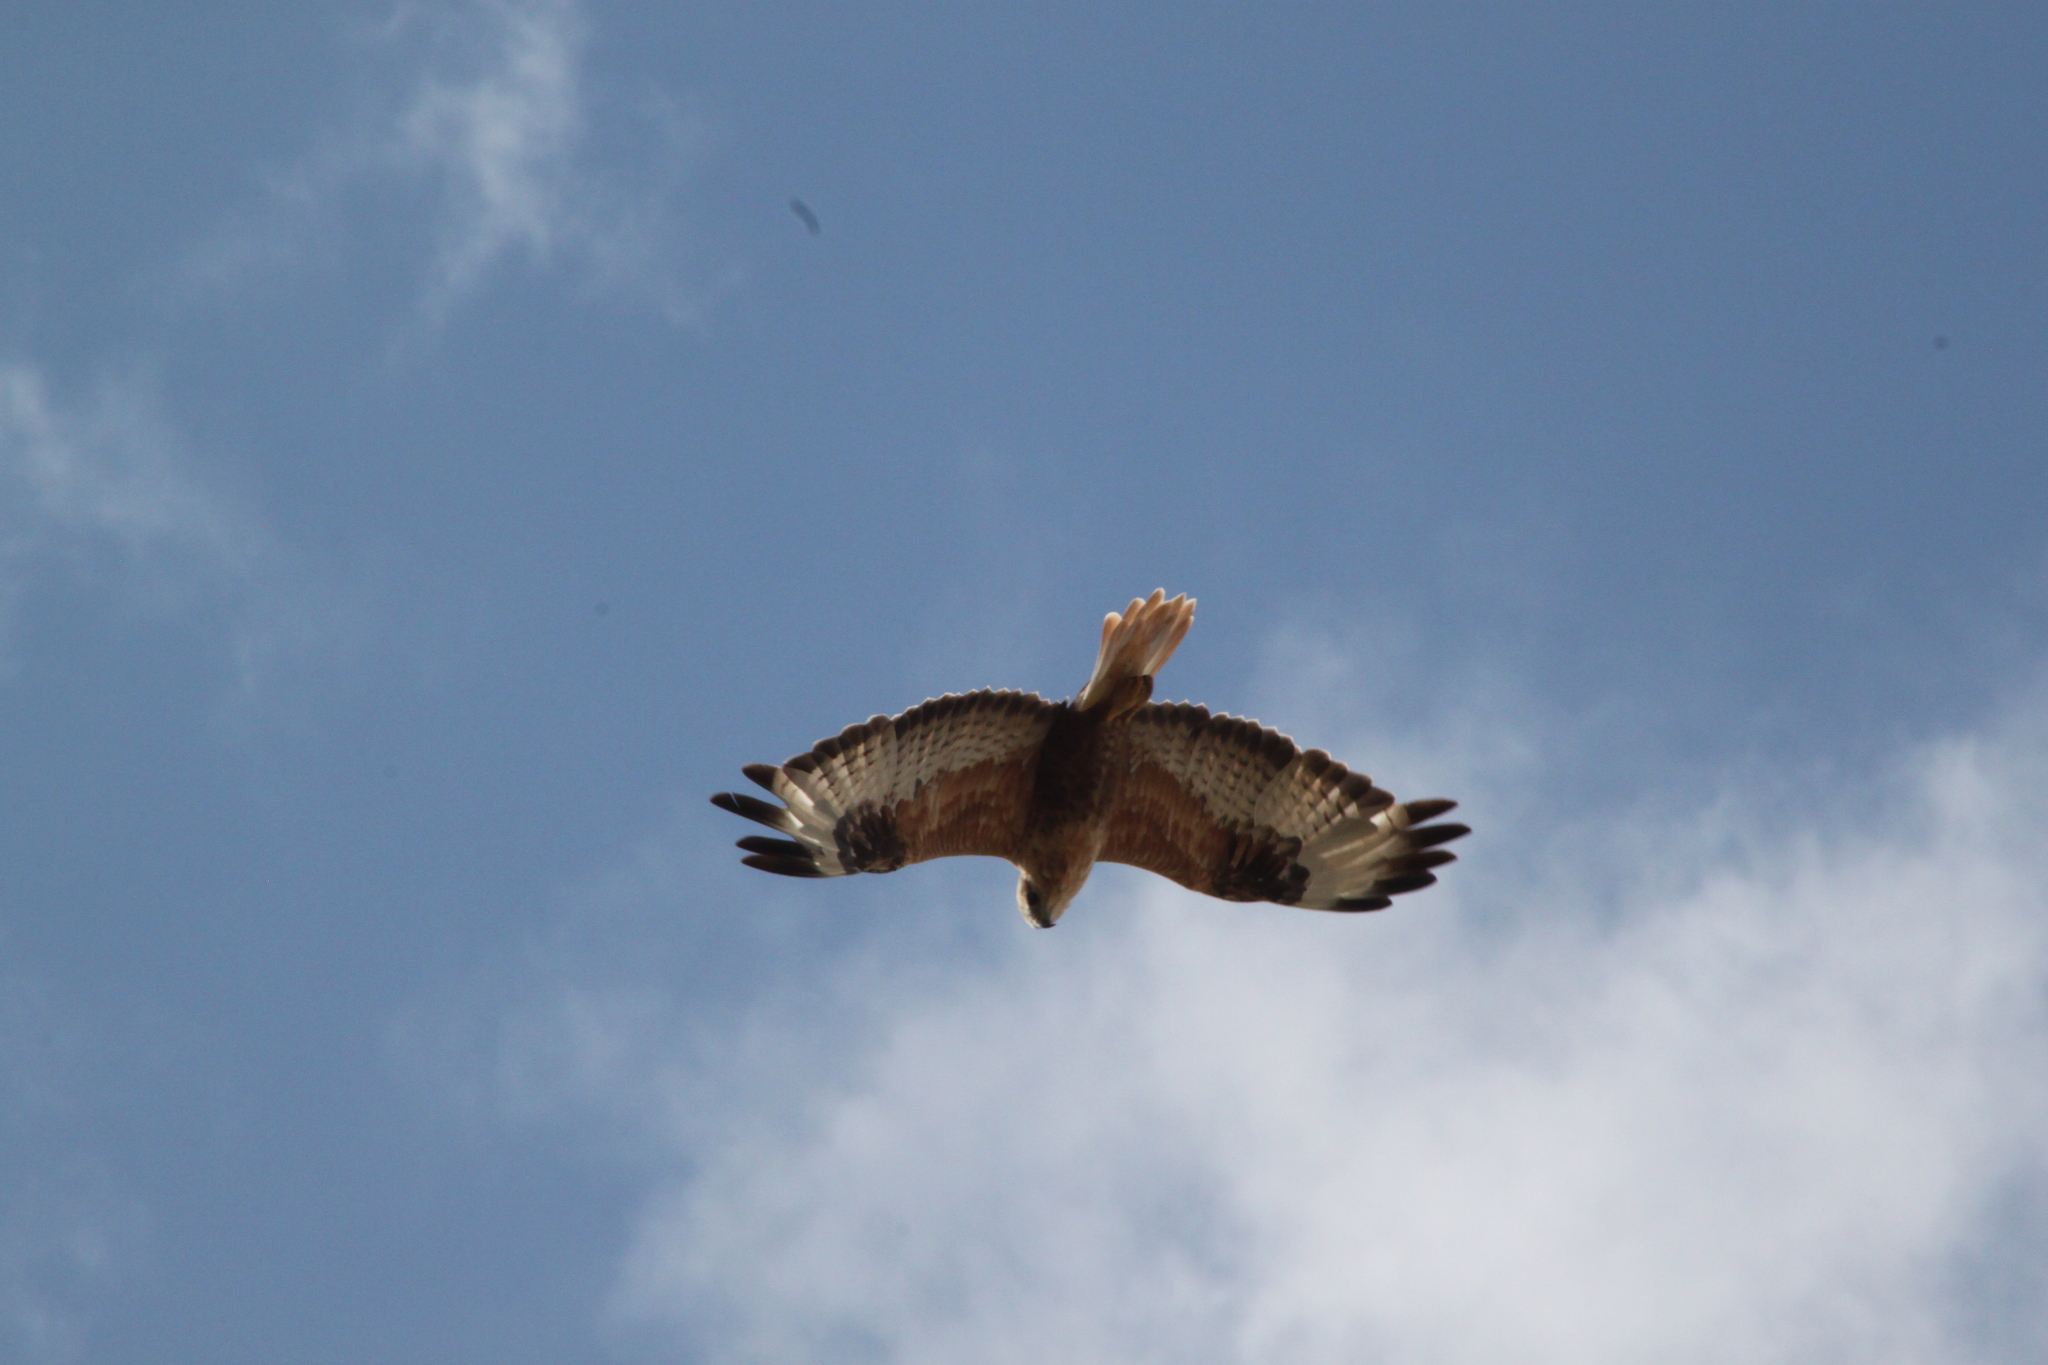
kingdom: Animalia
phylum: Chordata
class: Aves
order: Accipitriformes
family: Accipitridae
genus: Buteo
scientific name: Buteo rufinus
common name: Long-legged buzzard
